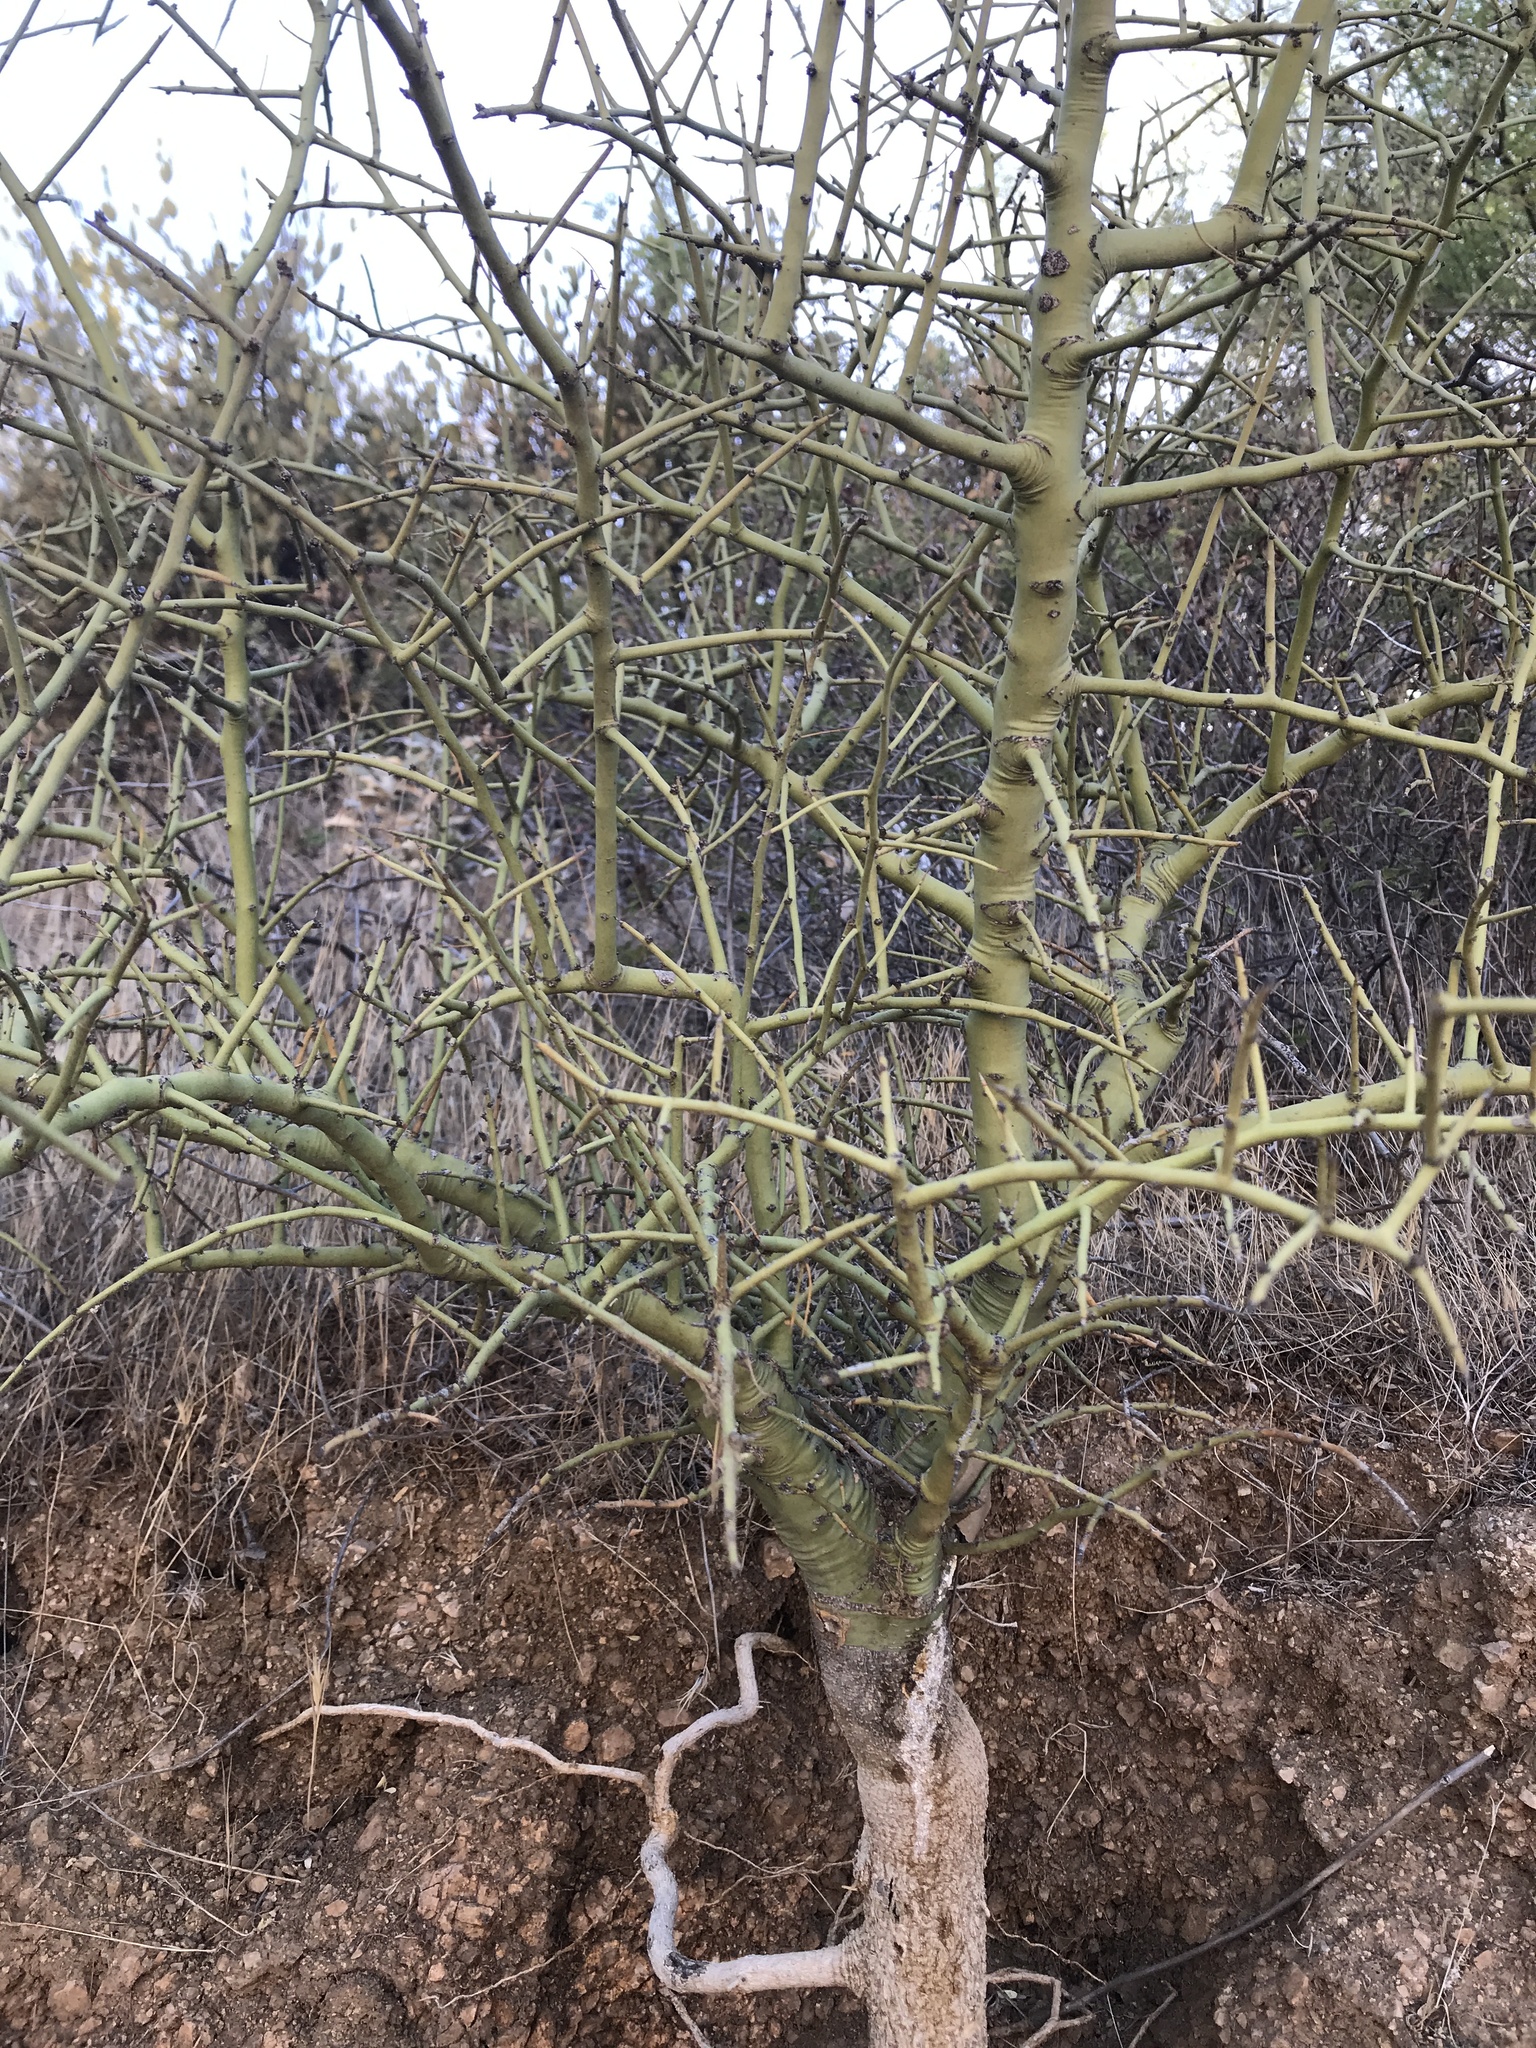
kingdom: Plantae
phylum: Tracheophyta
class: Magnoliopsida
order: Fabales
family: Fabaceae
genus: Parkinsonia
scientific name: Parkinsonia microphylla
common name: Yellow paloverde
